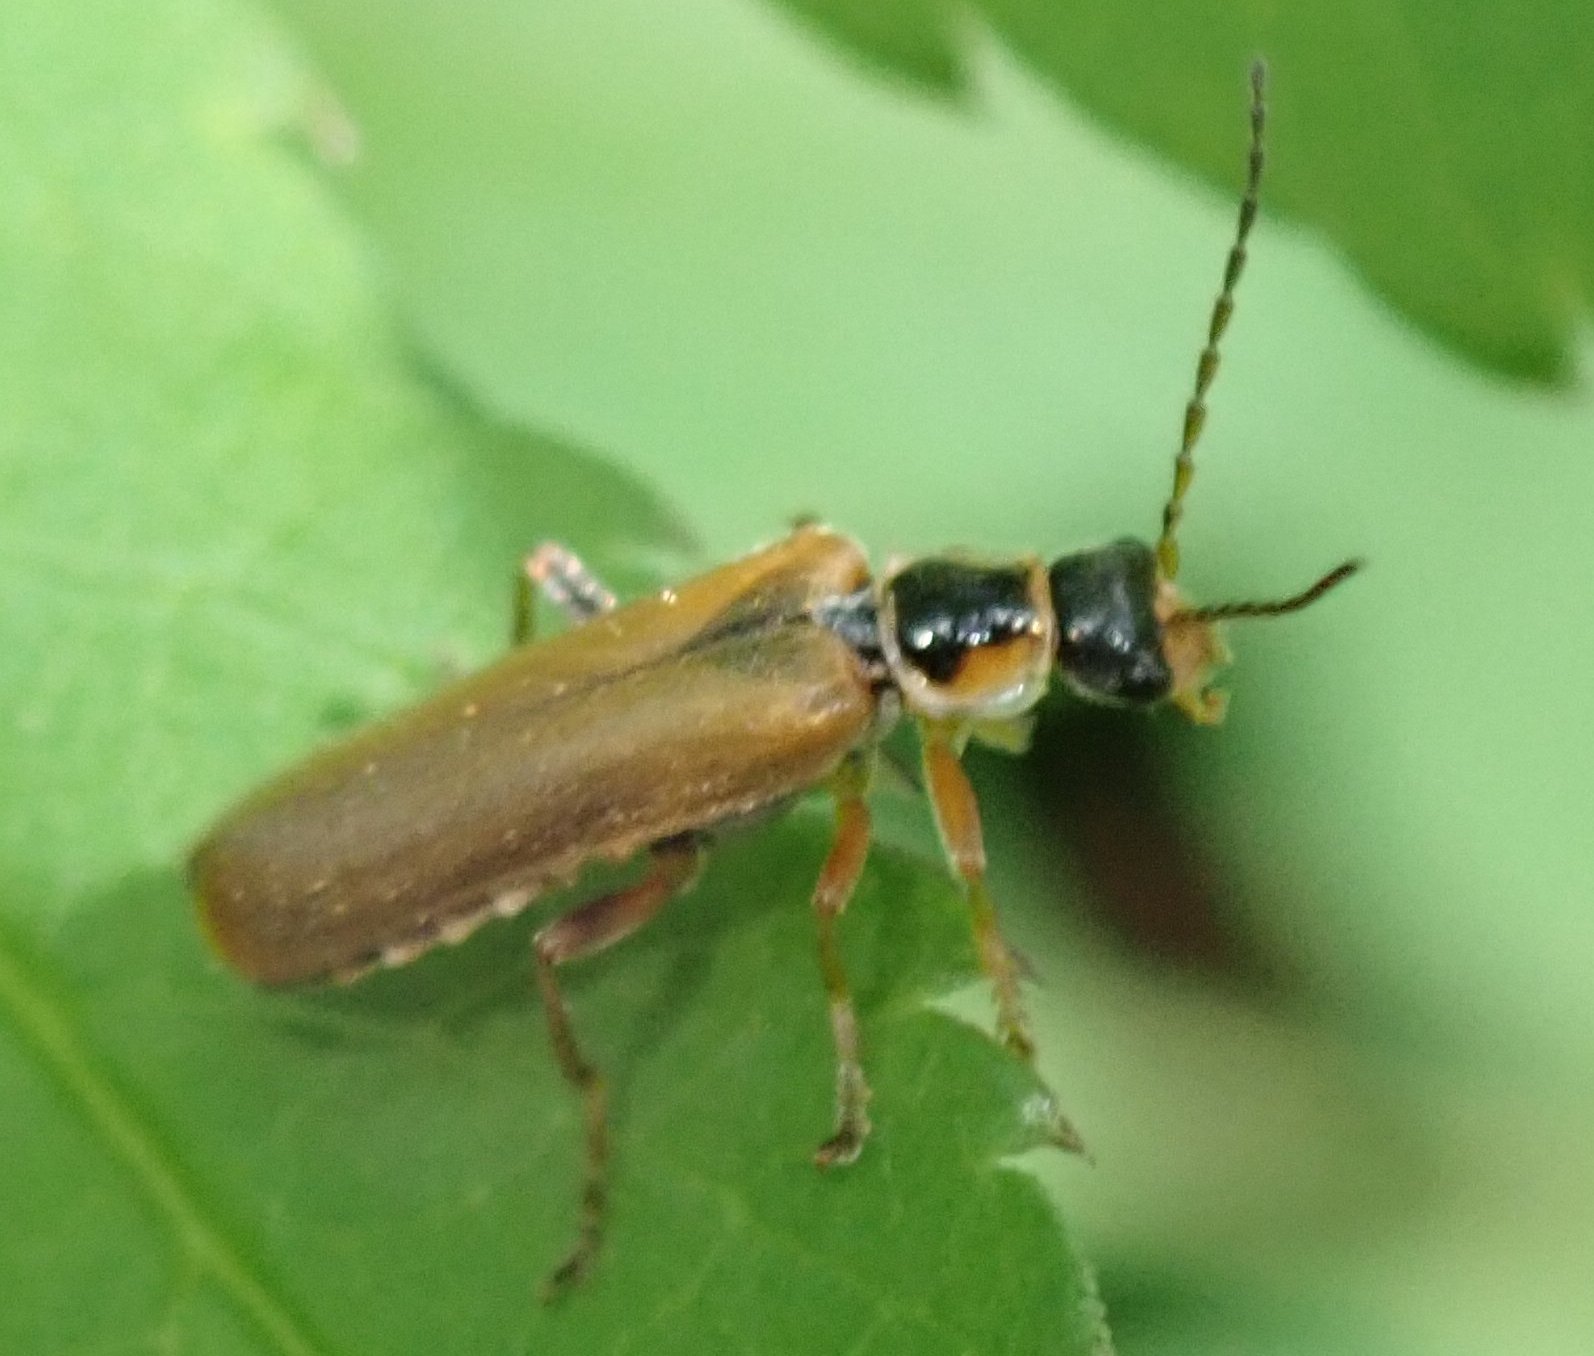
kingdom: Animalia
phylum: Arthropoda
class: Insecta
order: Coleoptera
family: Cantharidae
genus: Cantharis
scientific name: Cantharis decipiens
